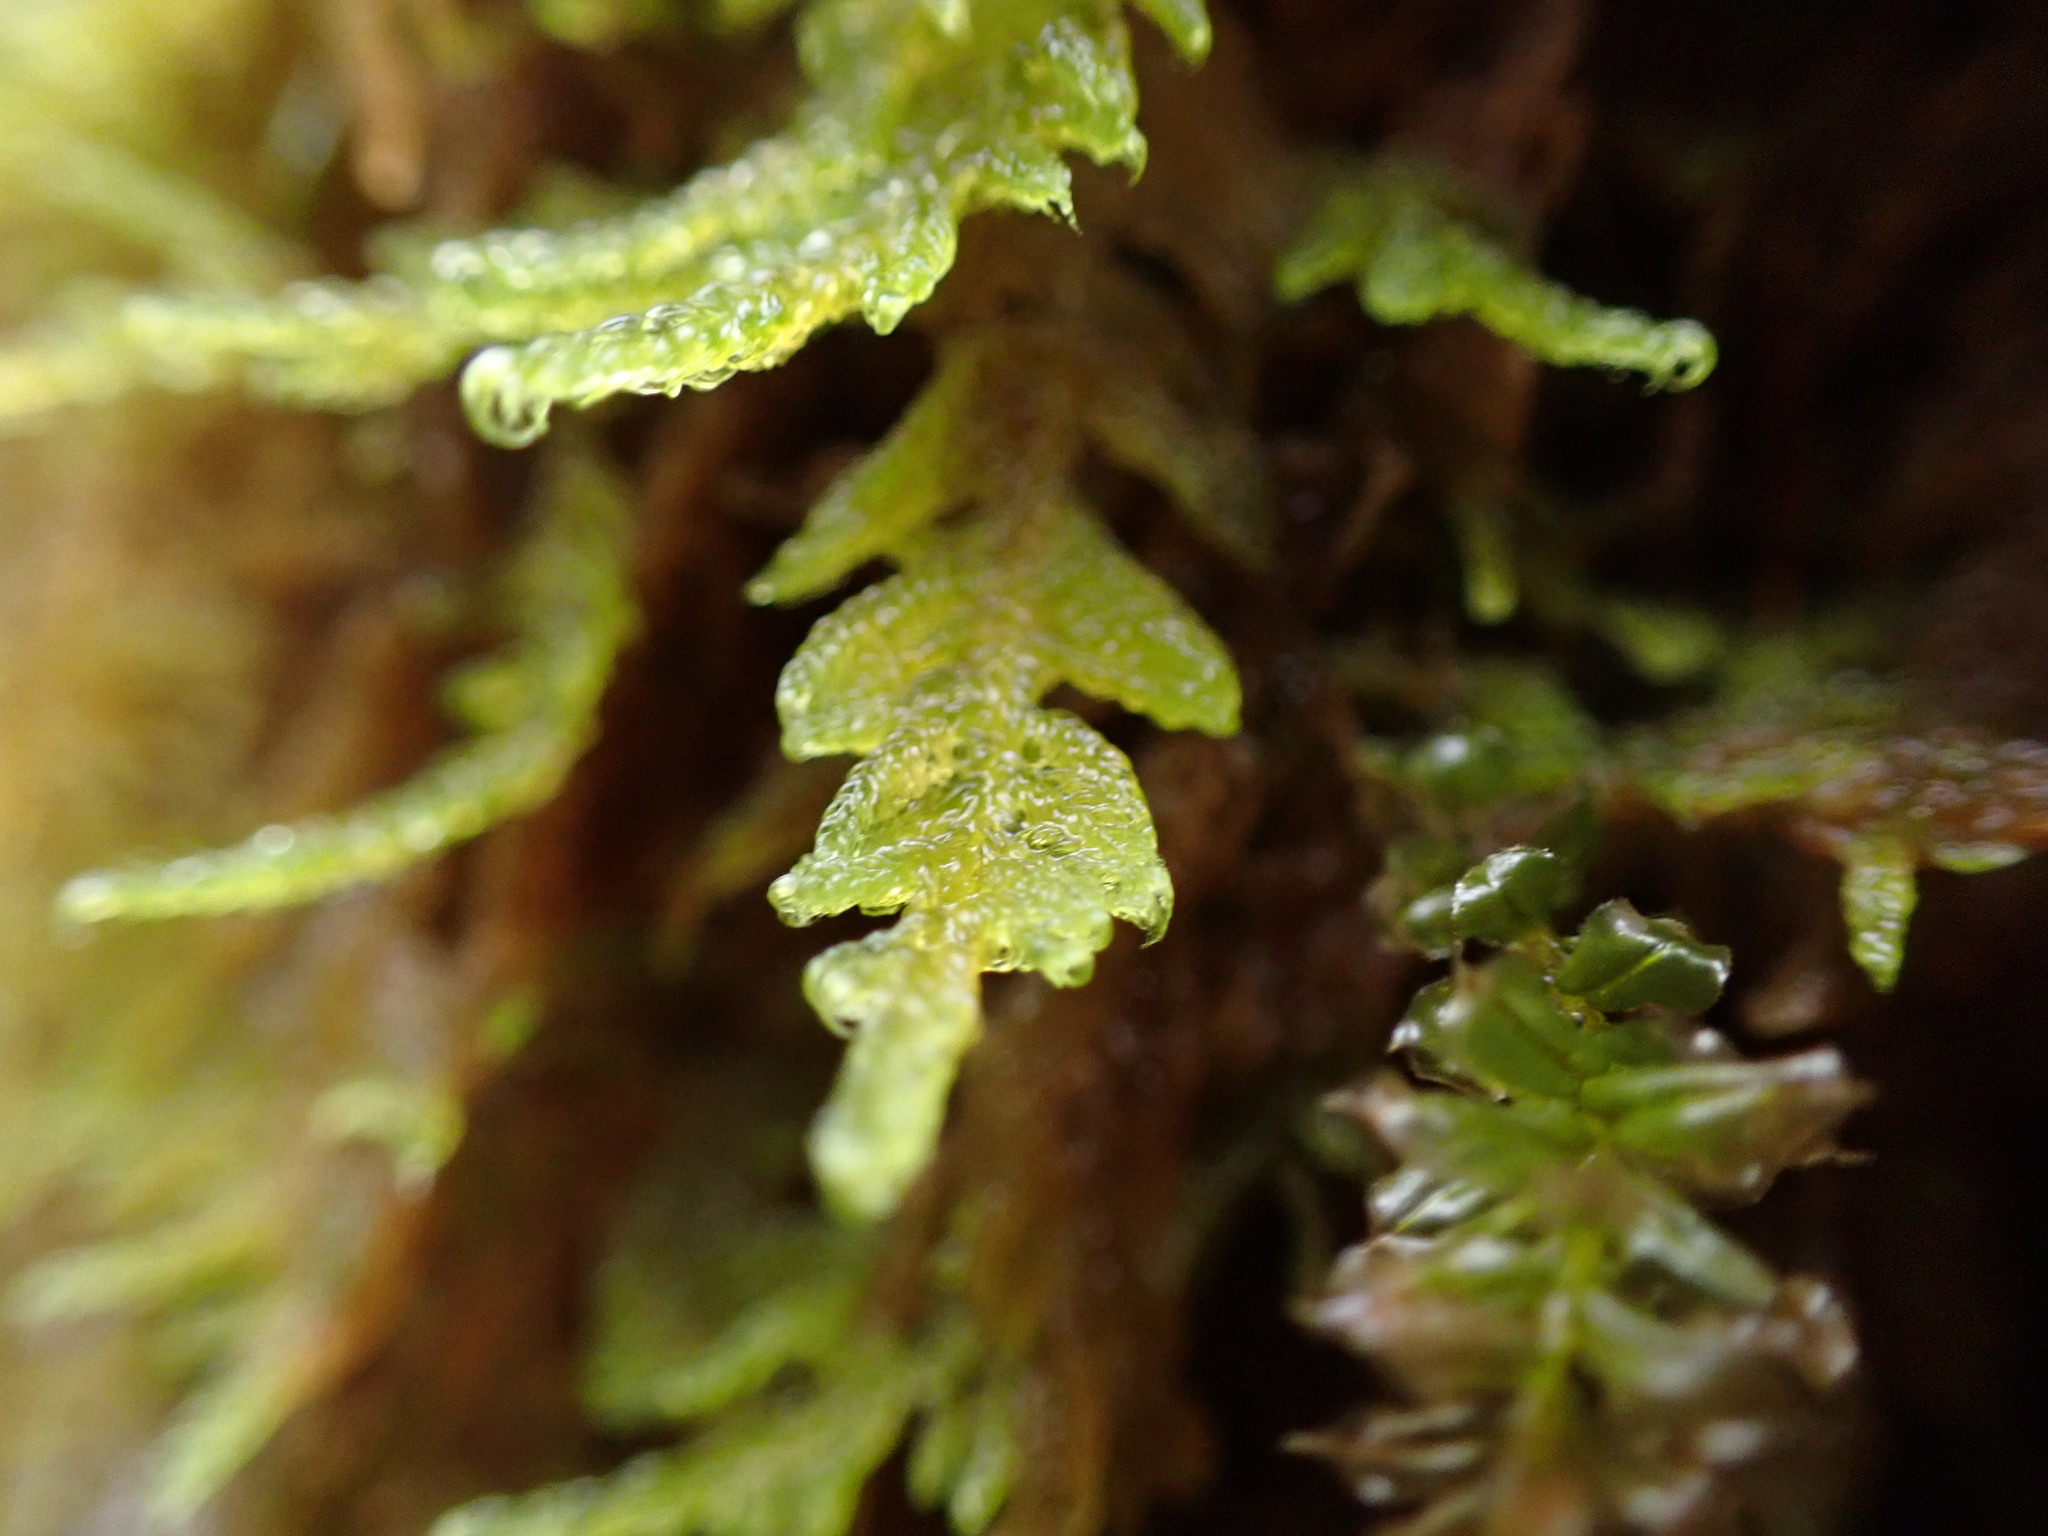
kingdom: Plantae
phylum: Bryophyta
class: Bryopsida
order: Hypnales
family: Stereodontaceae
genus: Stereodon
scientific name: Stereodon subimponens
